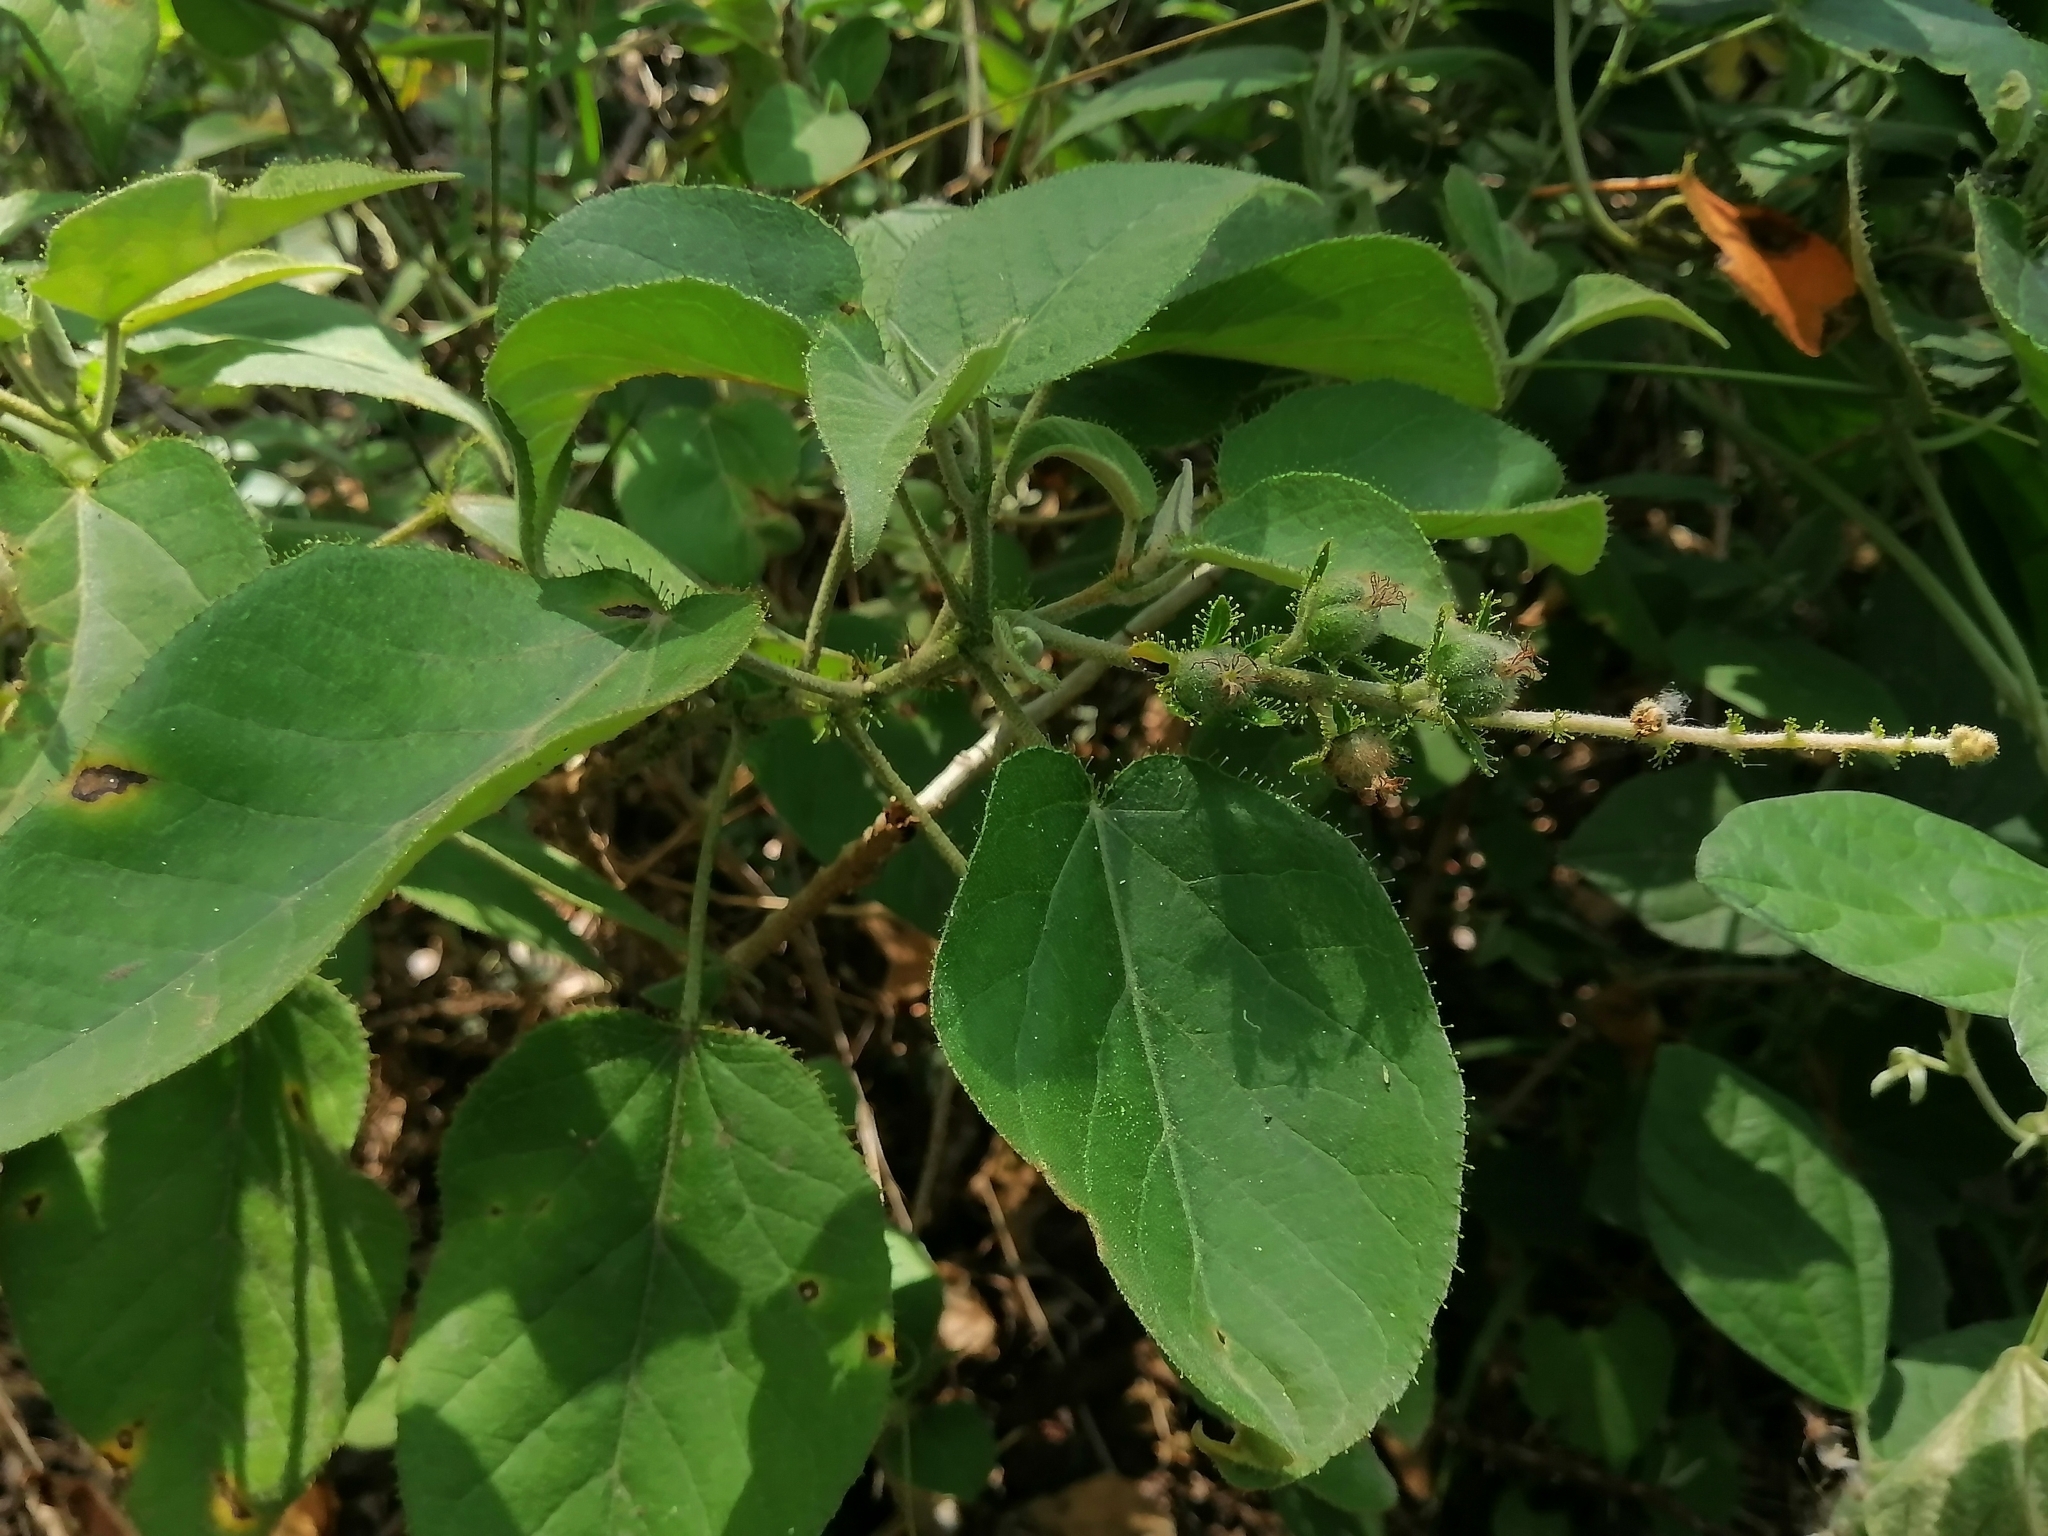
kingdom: Plantae
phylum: Tracheophyta
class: Magnoliopsida
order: Malpighiales
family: Euphorbiaceae
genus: Croton
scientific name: Croton ciliatoglandulifer
